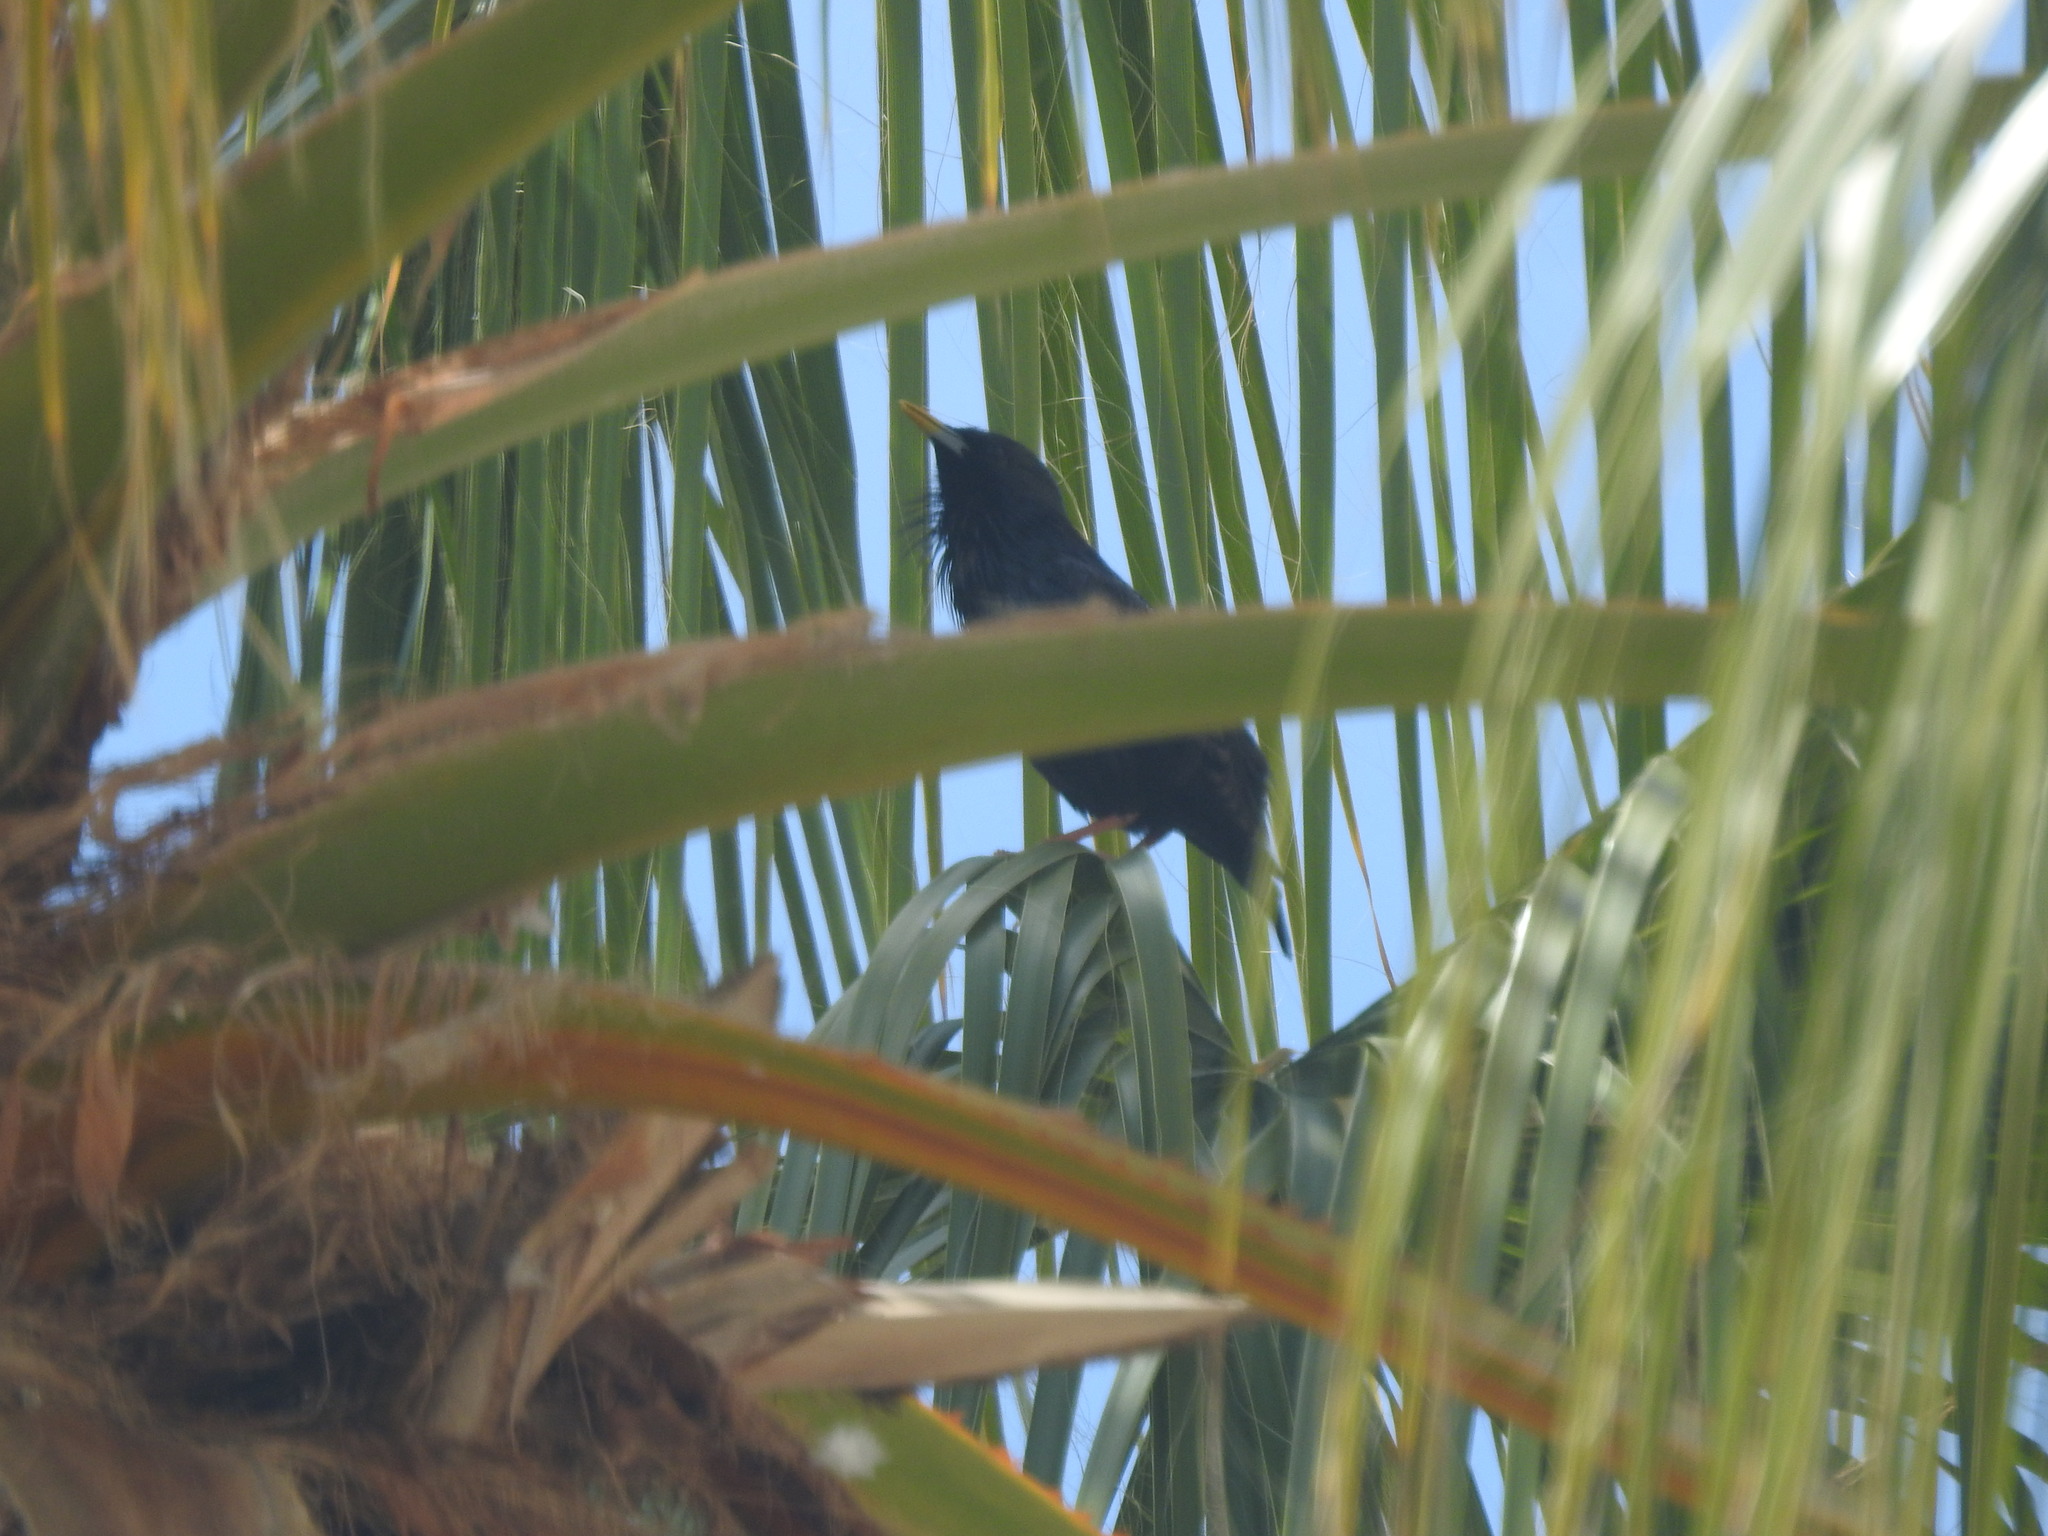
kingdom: Animalia
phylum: Chordata
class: Aves
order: Passeriformes
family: Sturnidae
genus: Sturnus
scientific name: Sturnus unicolor
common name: Spotless starling
